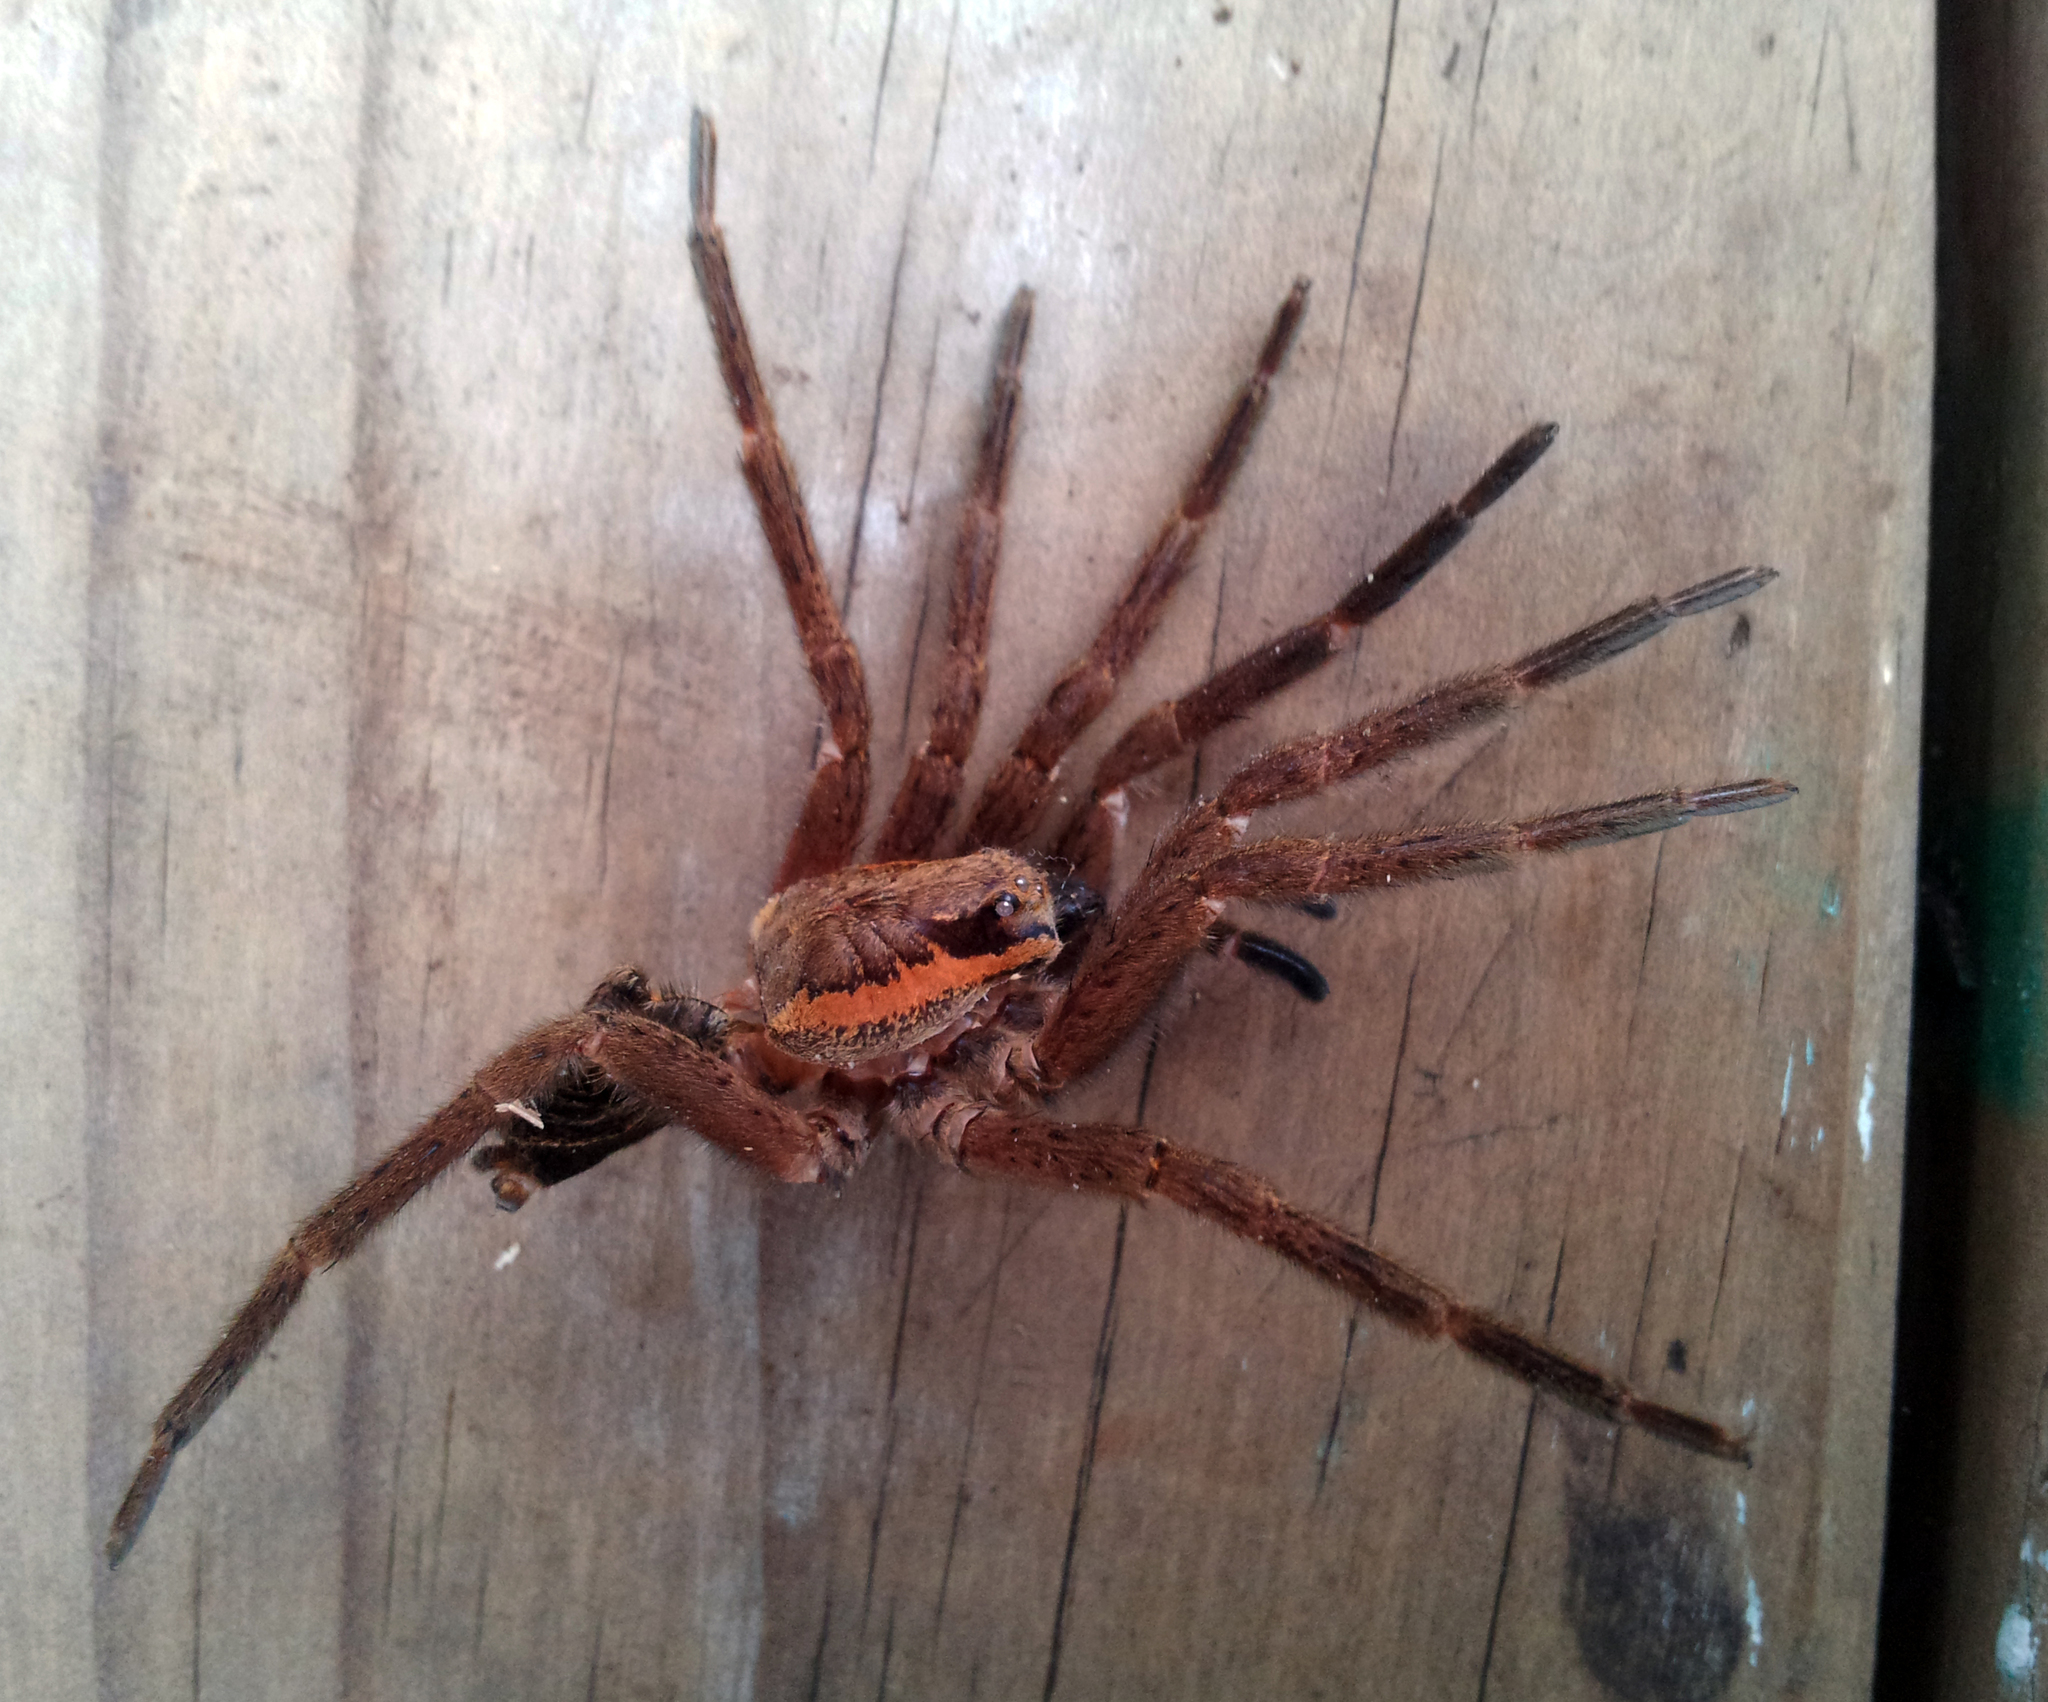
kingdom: Animalia
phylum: Arthropoda
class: Arachnida
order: Araneae
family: Pisauridae
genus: Dolomedes
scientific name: Dolomedes schauinslandi
